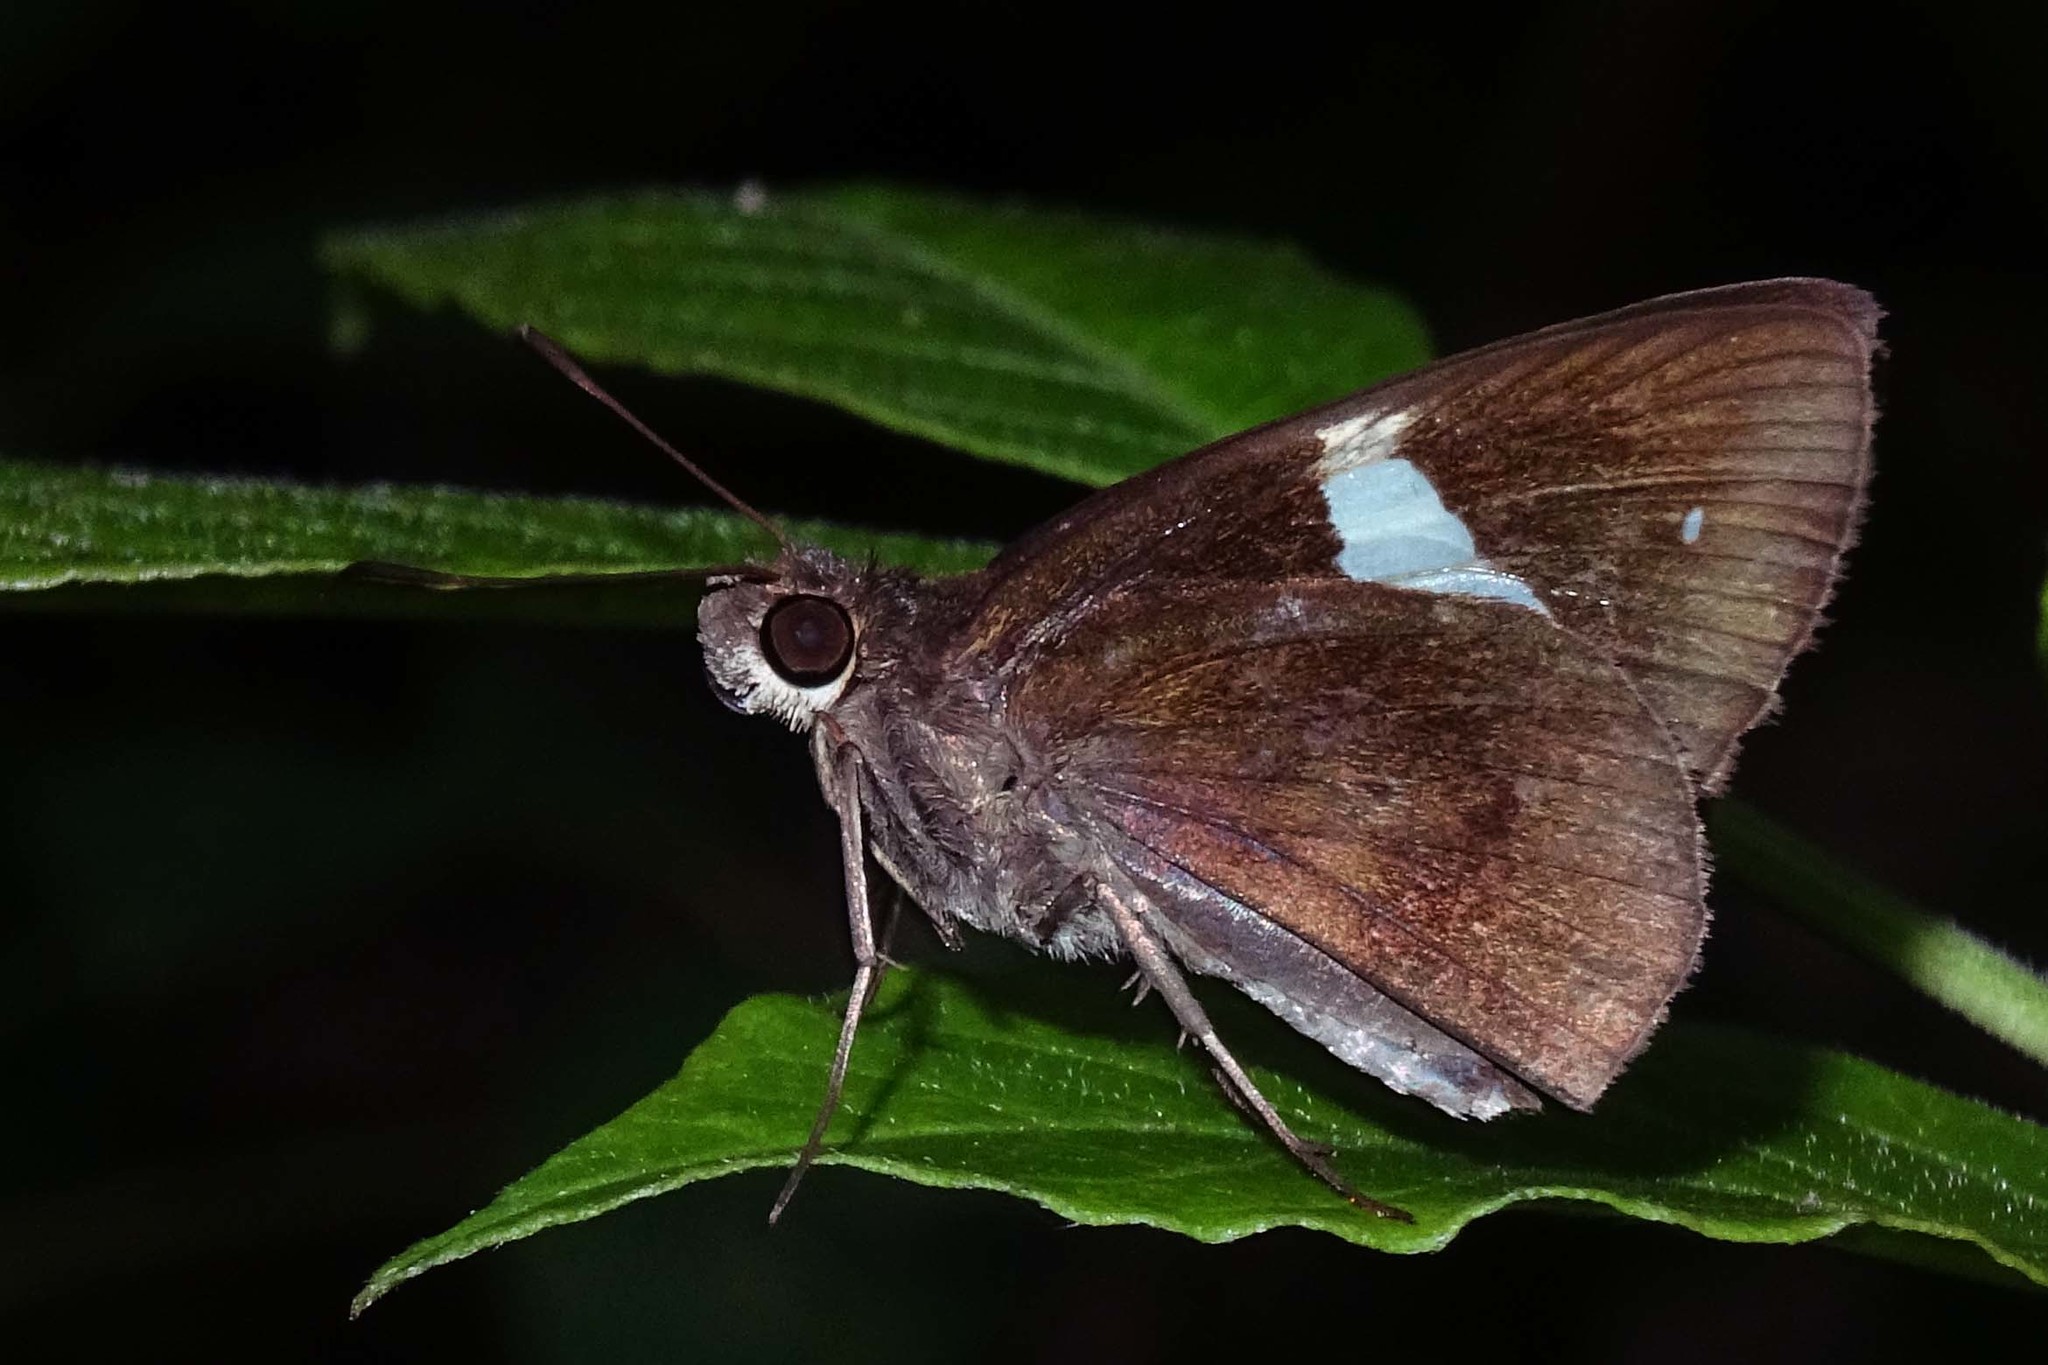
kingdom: Animalia
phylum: Arthropoda
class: Insecta
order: Lepidoptera
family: Hesperiidae
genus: Notocrypta
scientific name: Notocrypta paralysos
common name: Common banded demon
